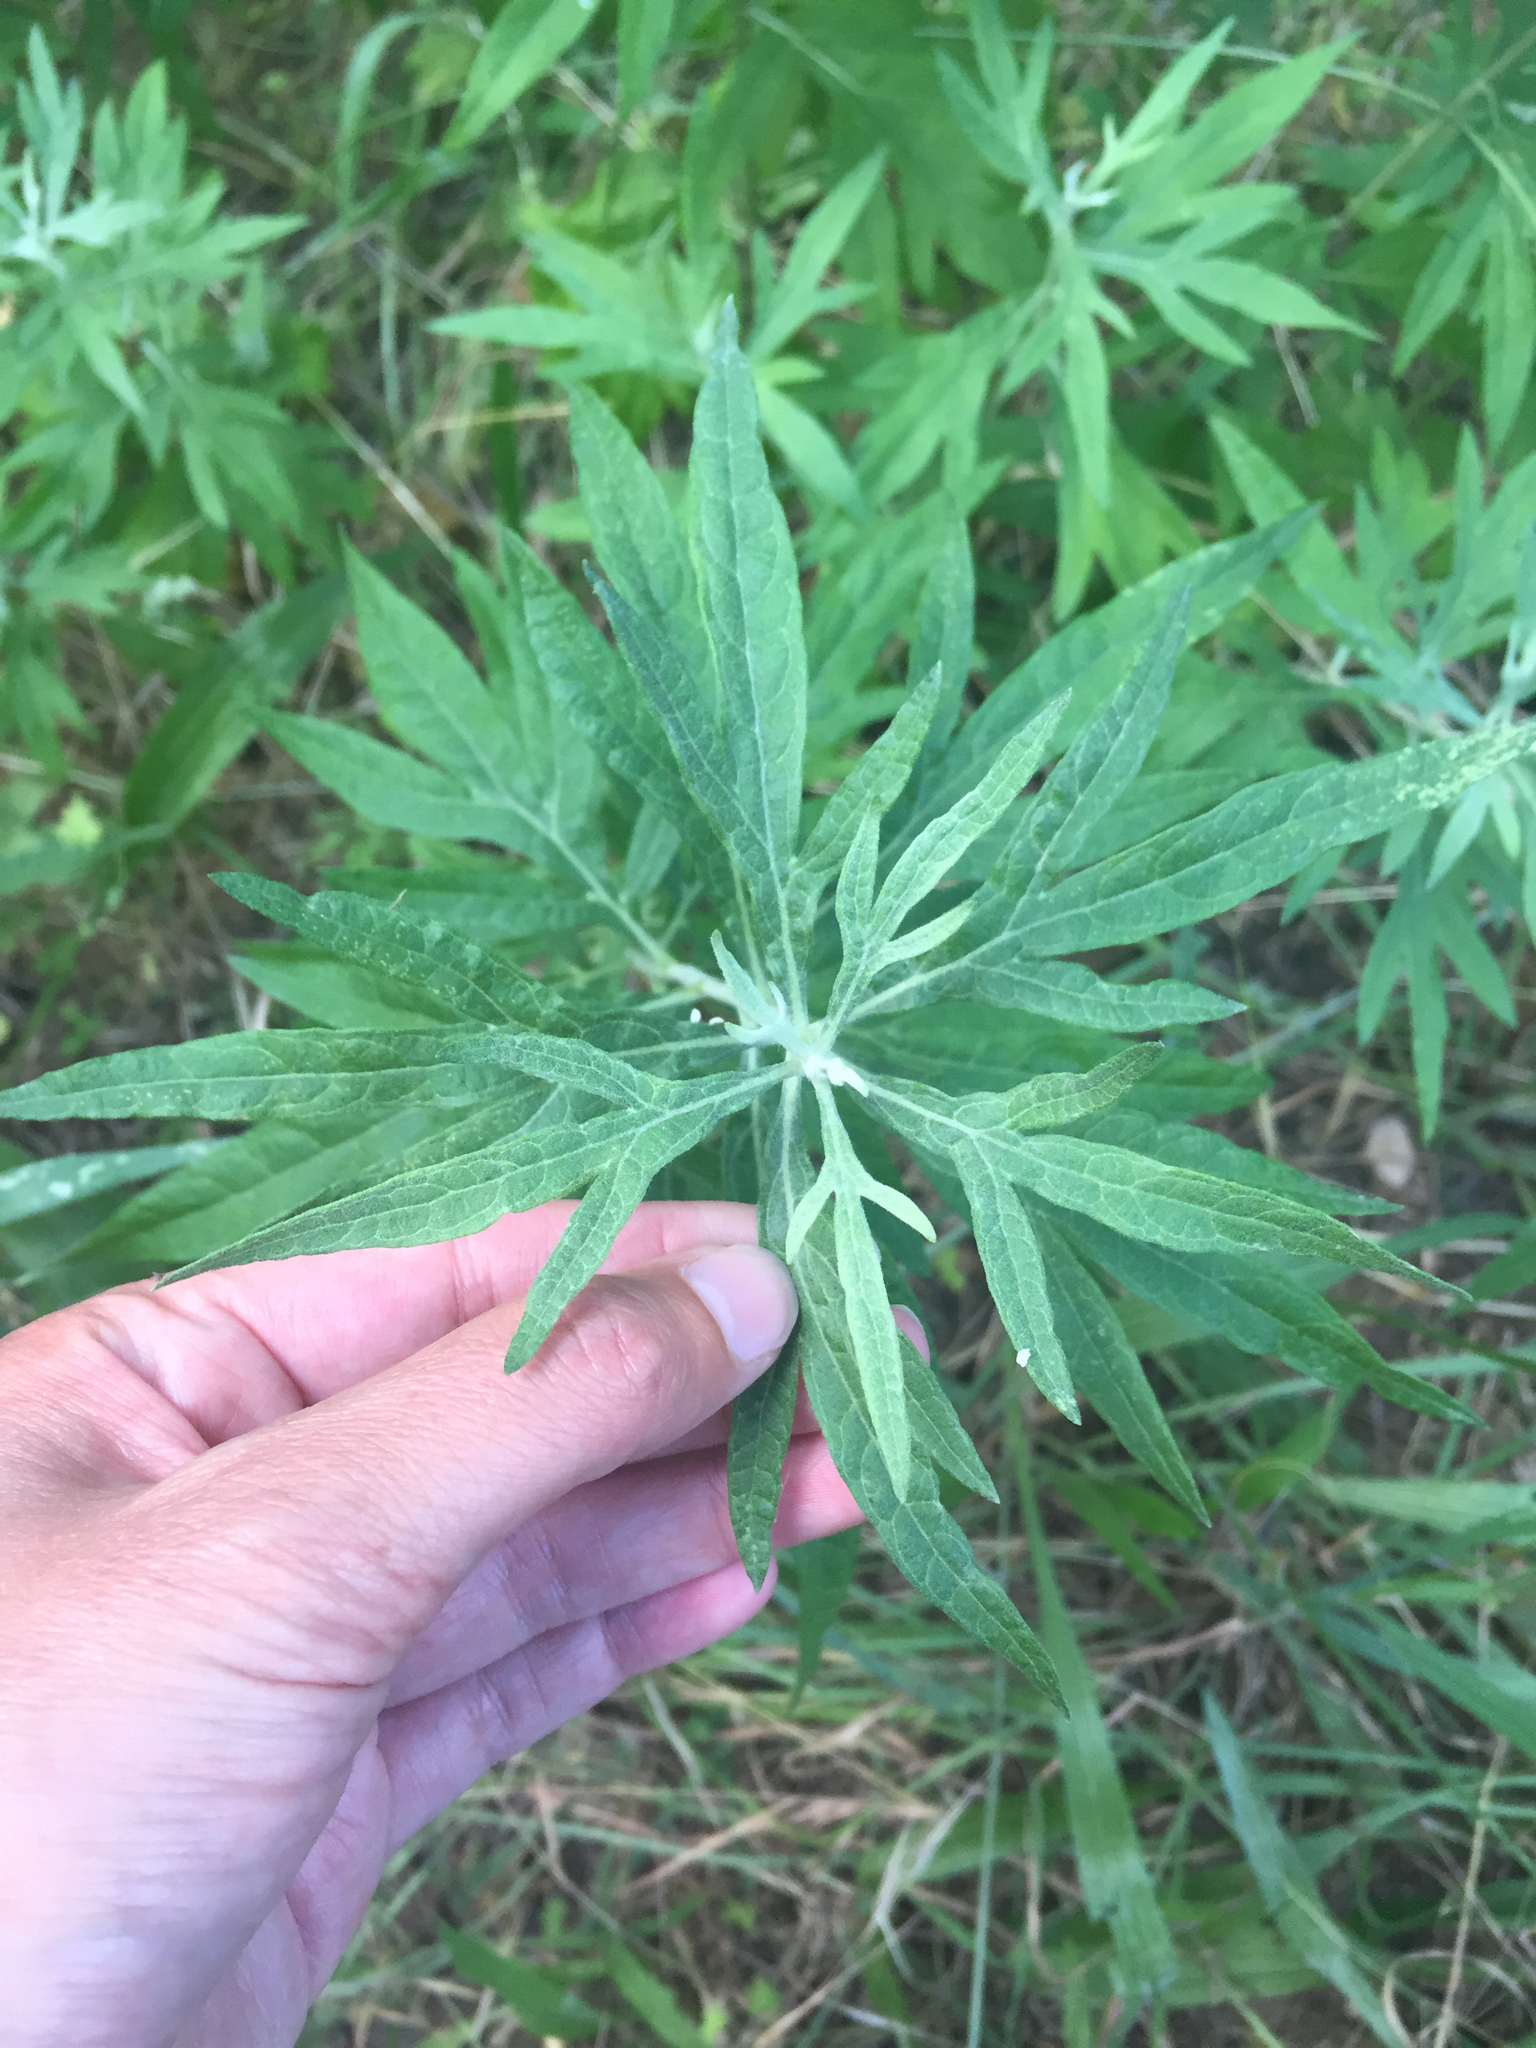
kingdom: Plantae
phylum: Tracheophyta
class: Magnoliopsida
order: Asterales
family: Asteraceae
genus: Artemisia
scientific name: Artemisia douglasiana
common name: Northwest mugwort
